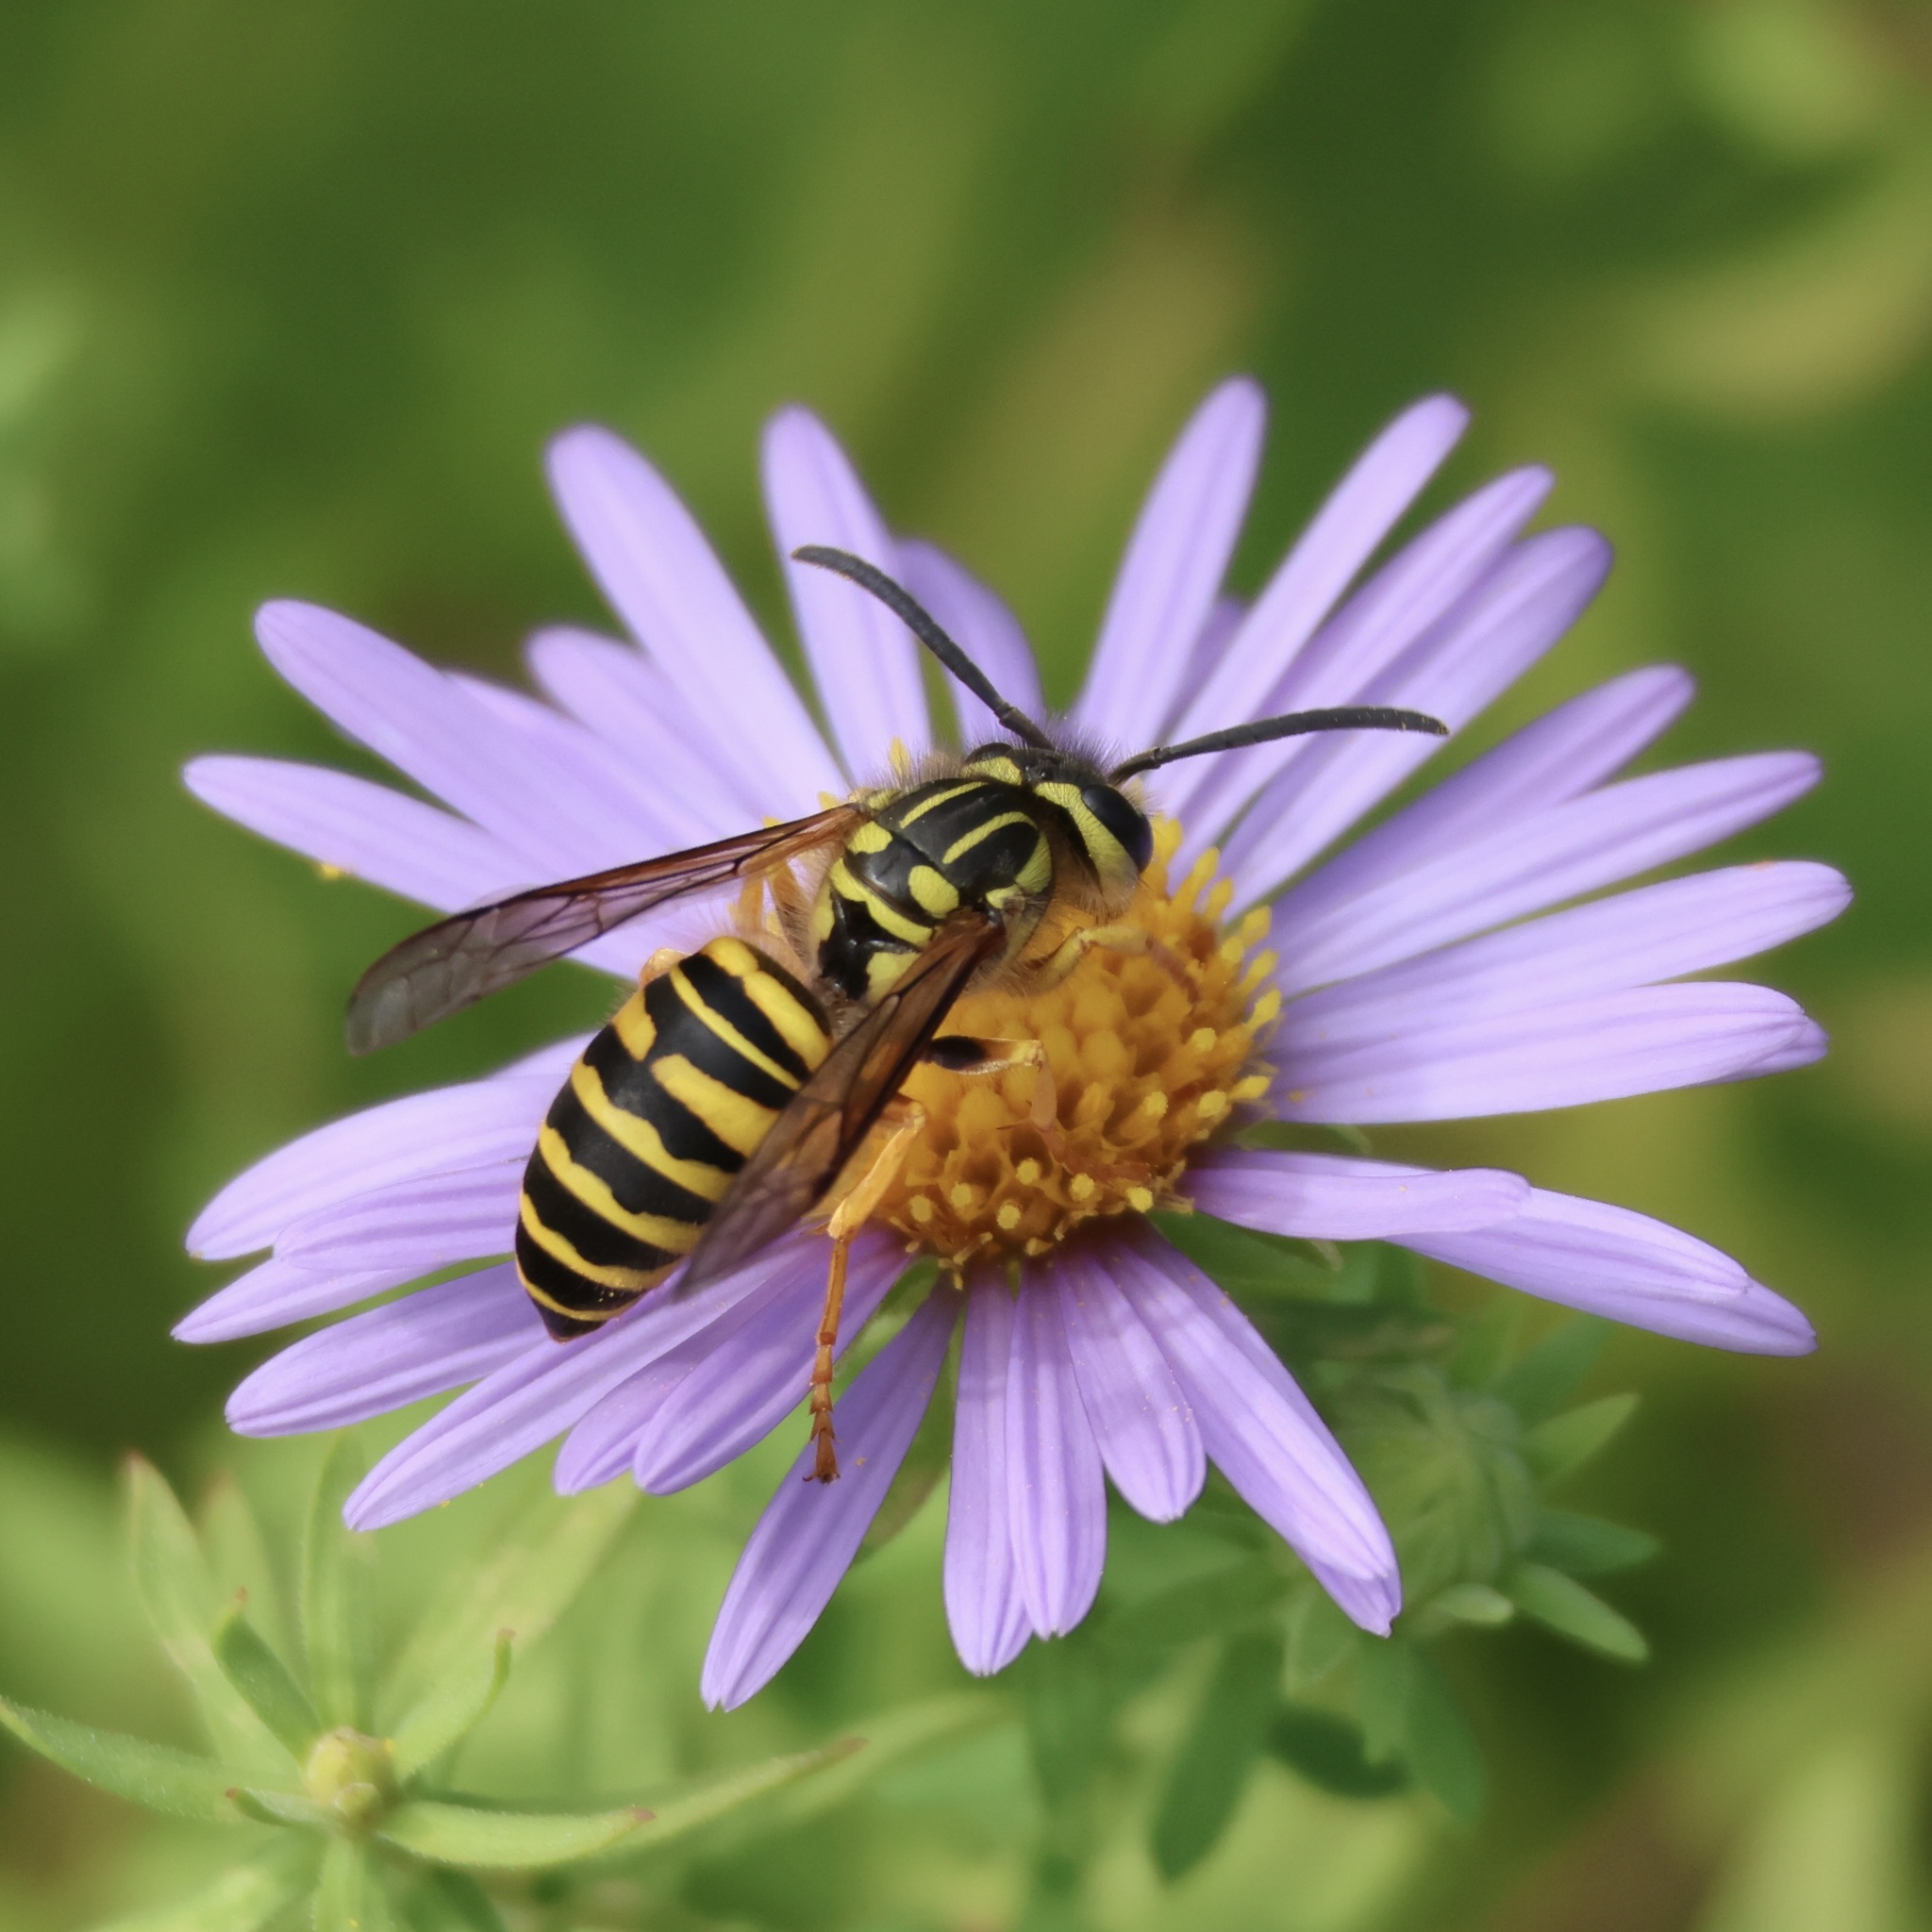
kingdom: Animalia
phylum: Arthropoda
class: Insecta
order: Hymenoptera
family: Vespidae
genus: Vespula
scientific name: Vespula squamosa
